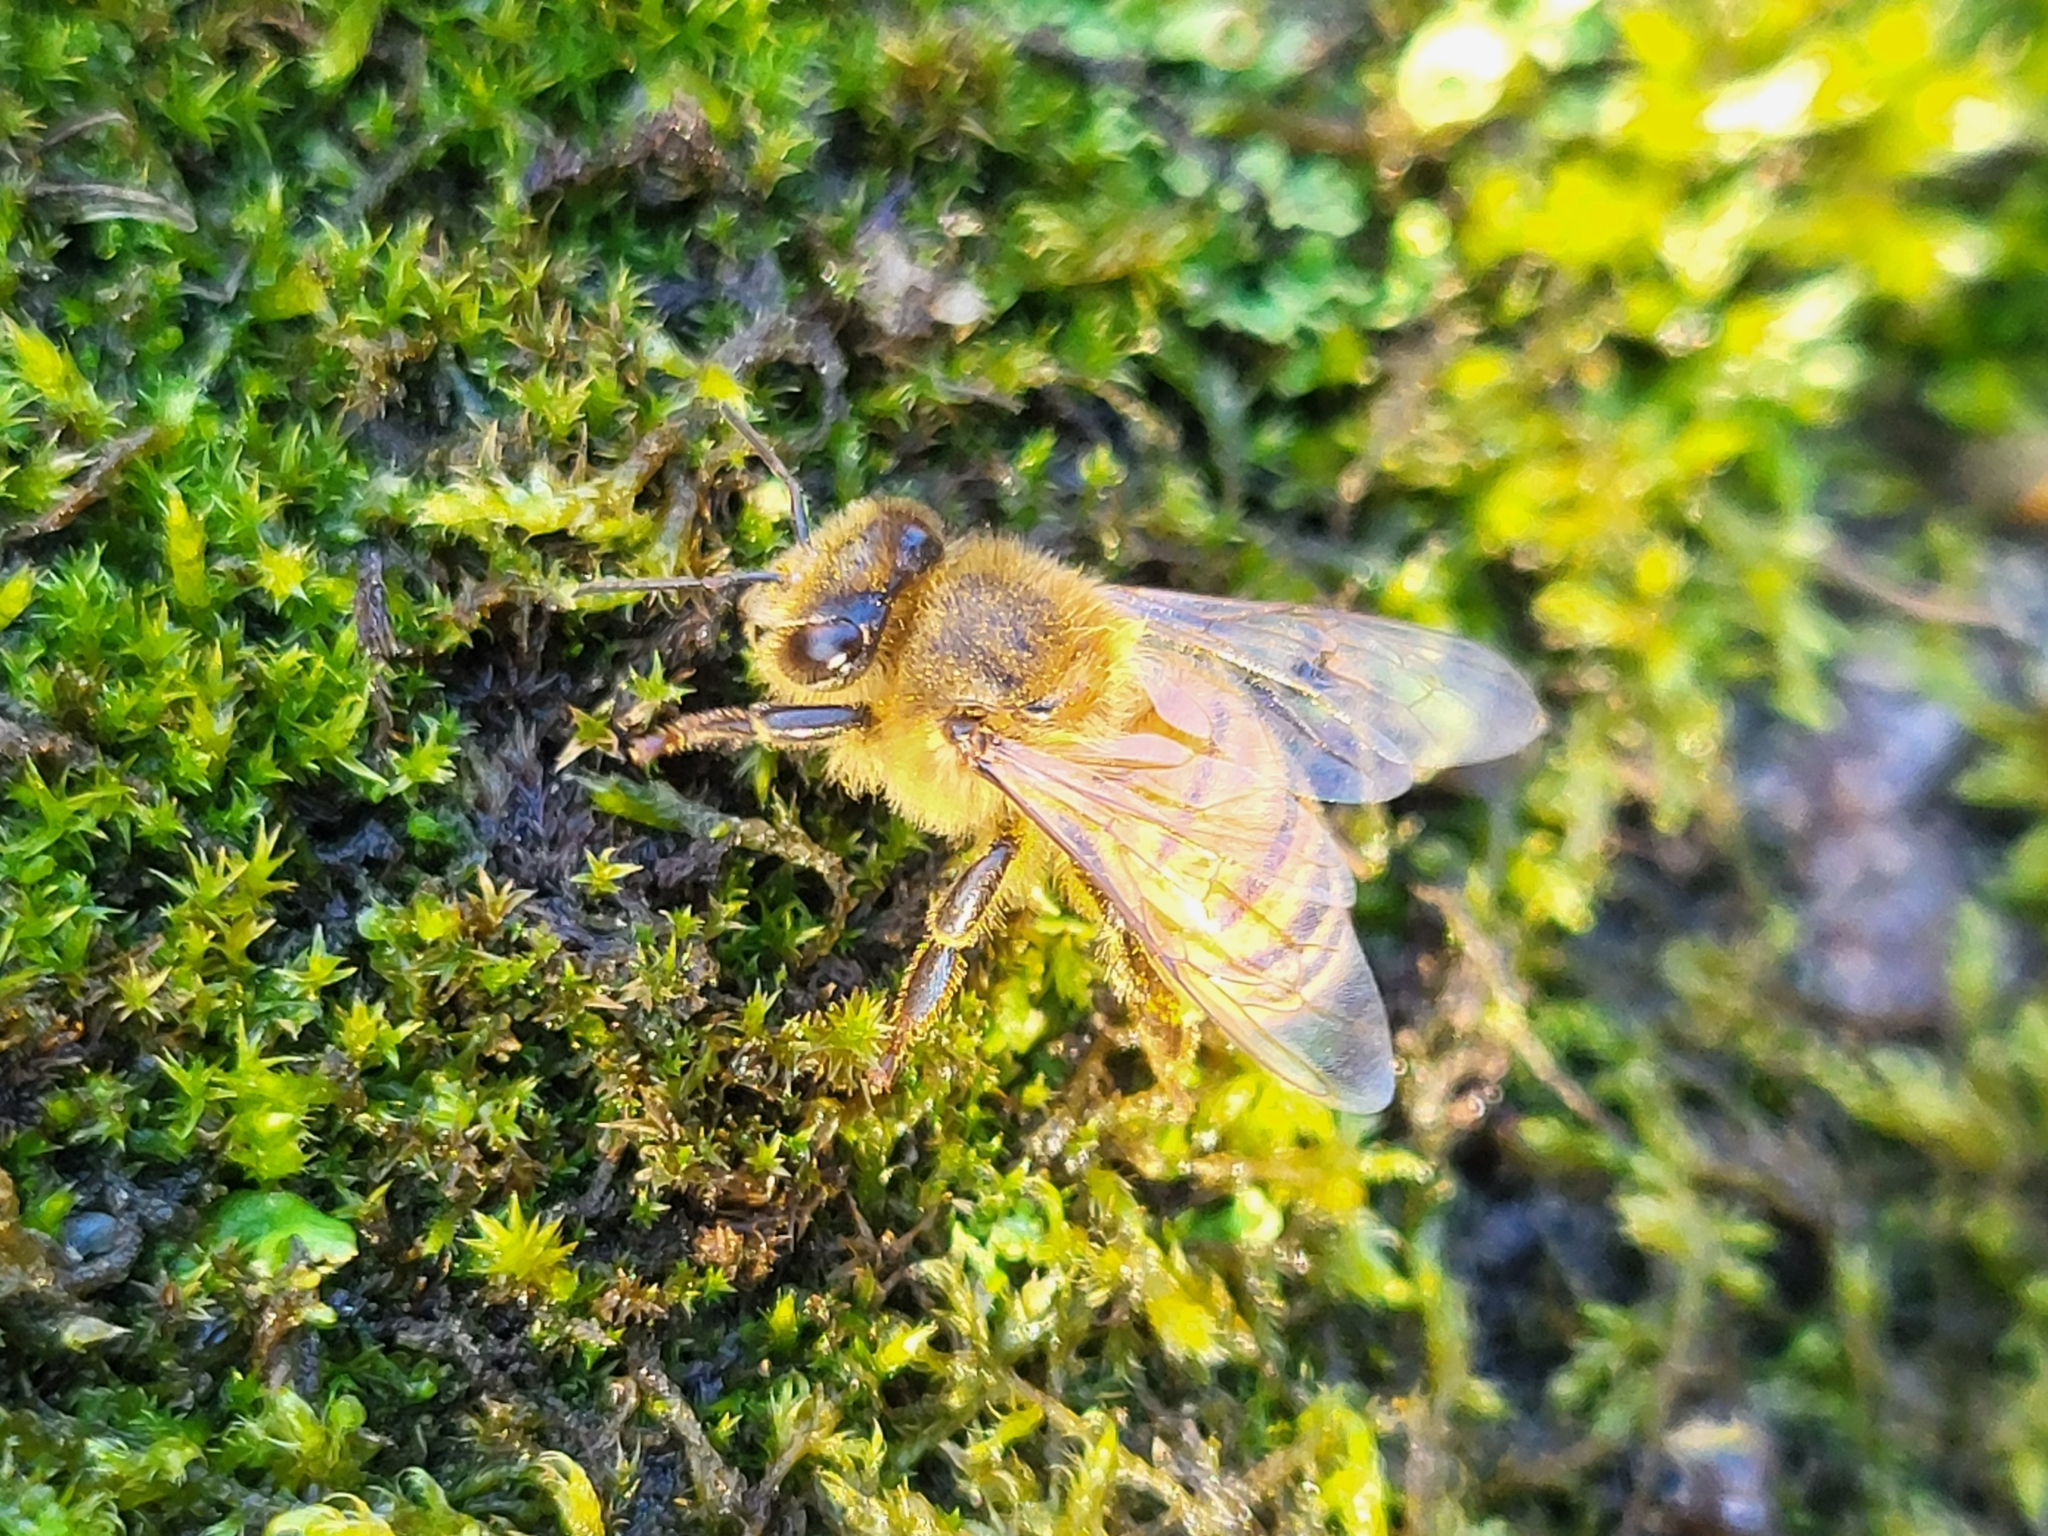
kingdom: Animalia
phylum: Arthropoda
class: Insecta
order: Hymenoptera
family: Apidae
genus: Apis
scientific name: Apis mellifera
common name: Honey bee
